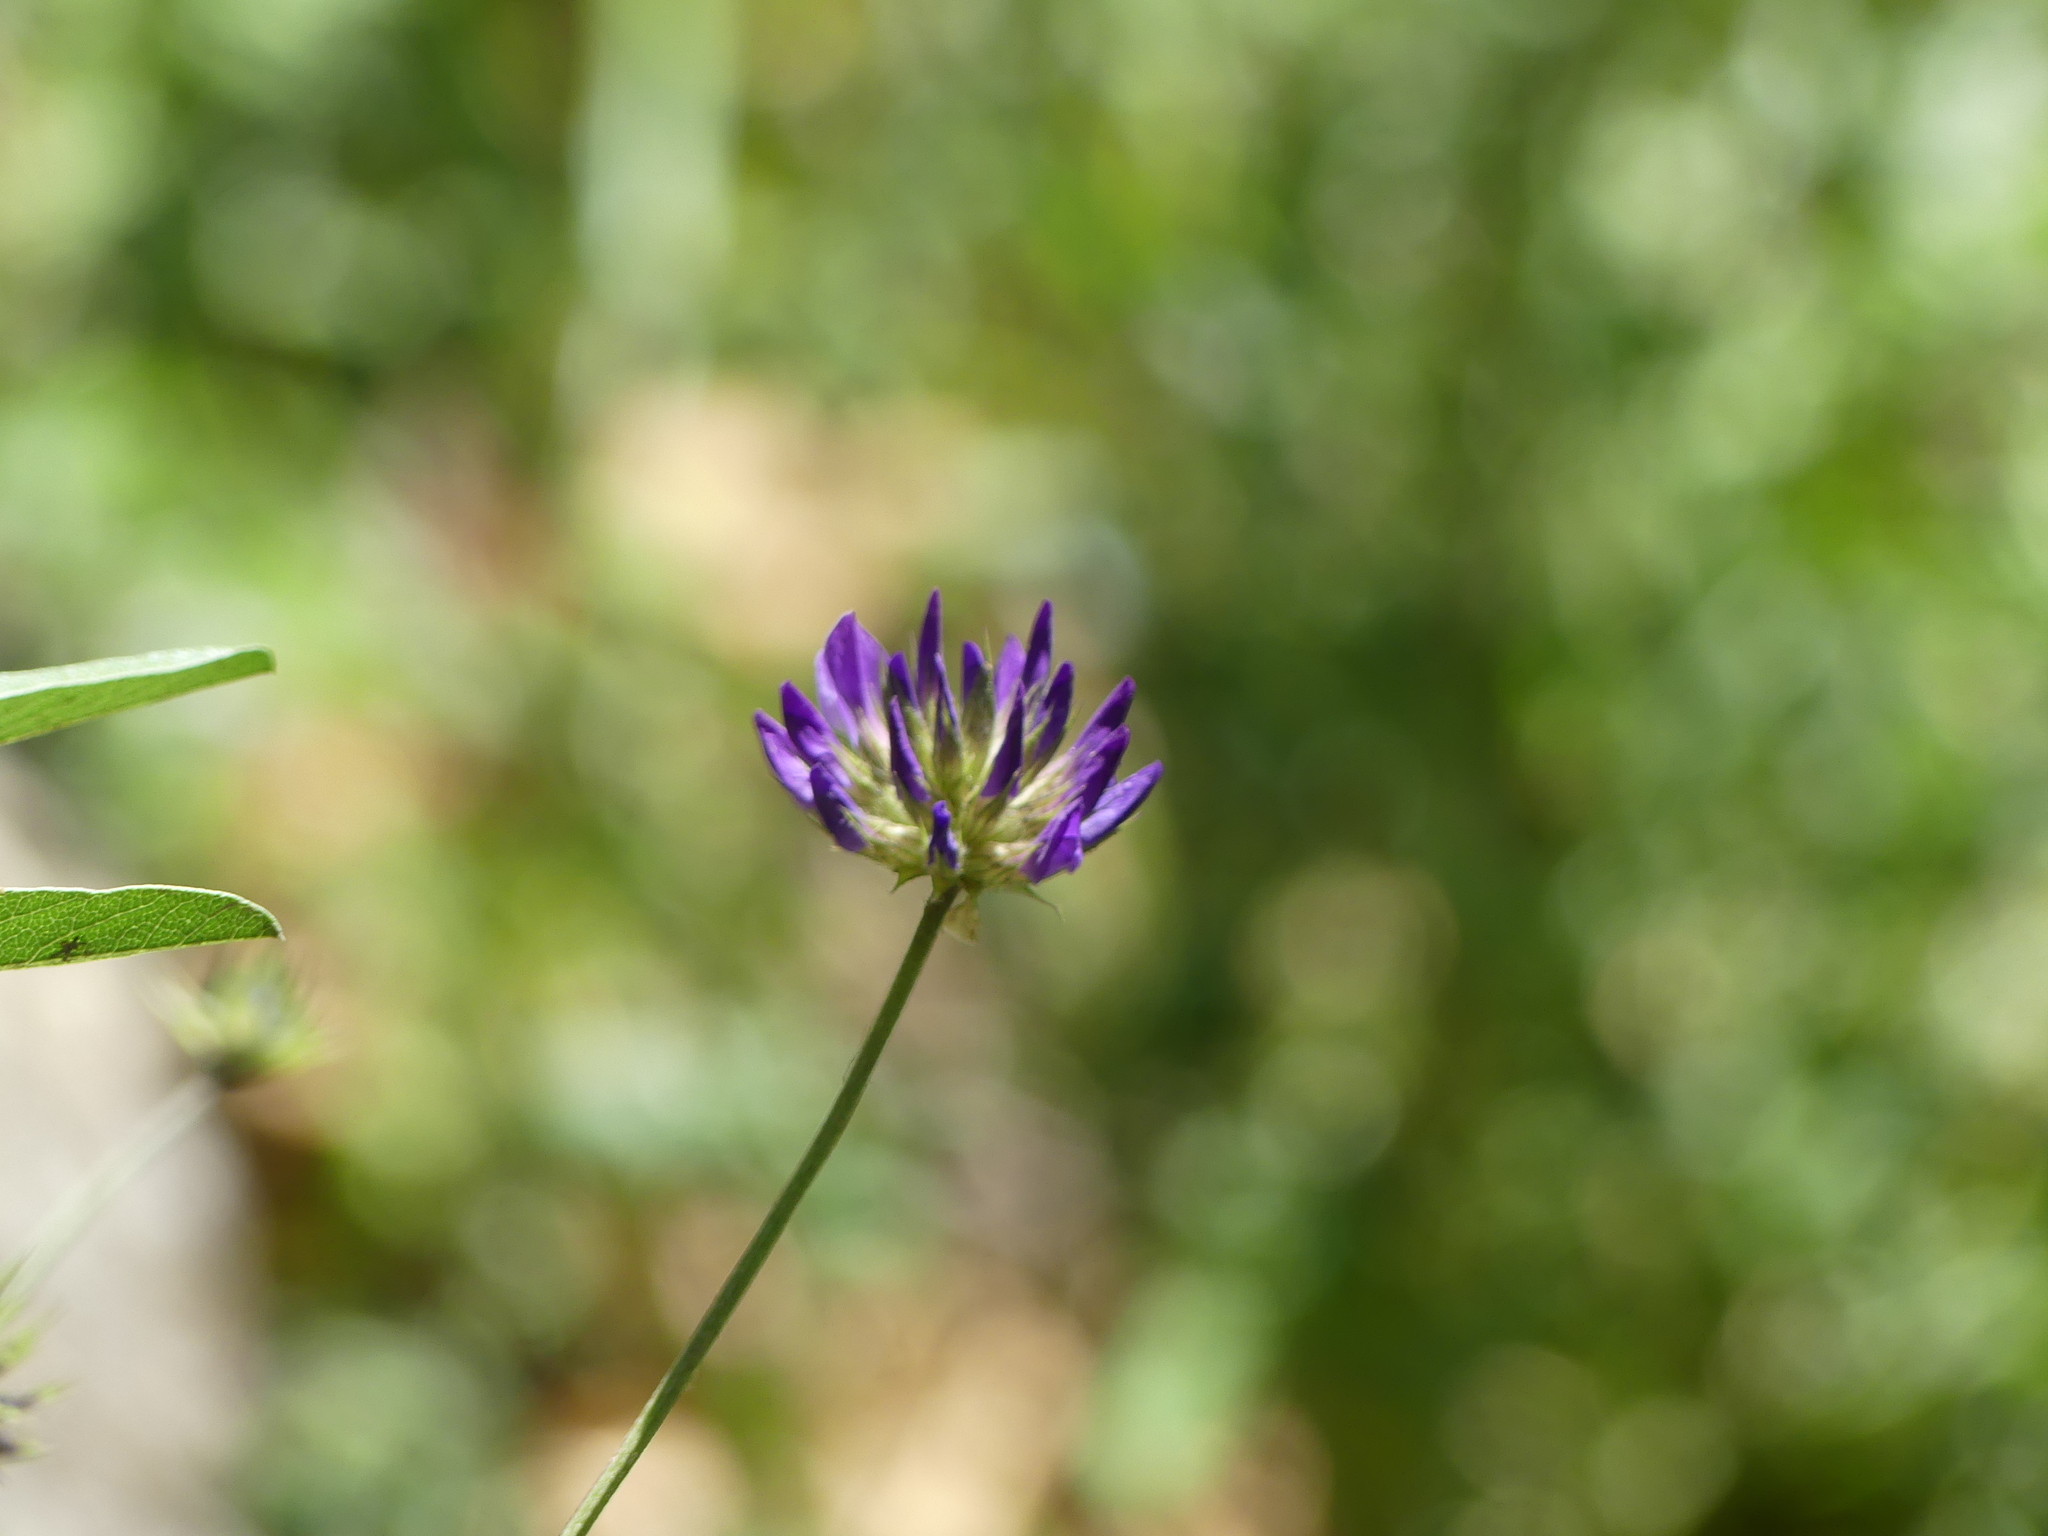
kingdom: Plantae
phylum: Tracheophyta
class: Magnoliopsida
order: Fabales
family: Fabaceae
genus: Bituminaria
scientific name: Bituminaria bituminosa
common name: Arabian pea
